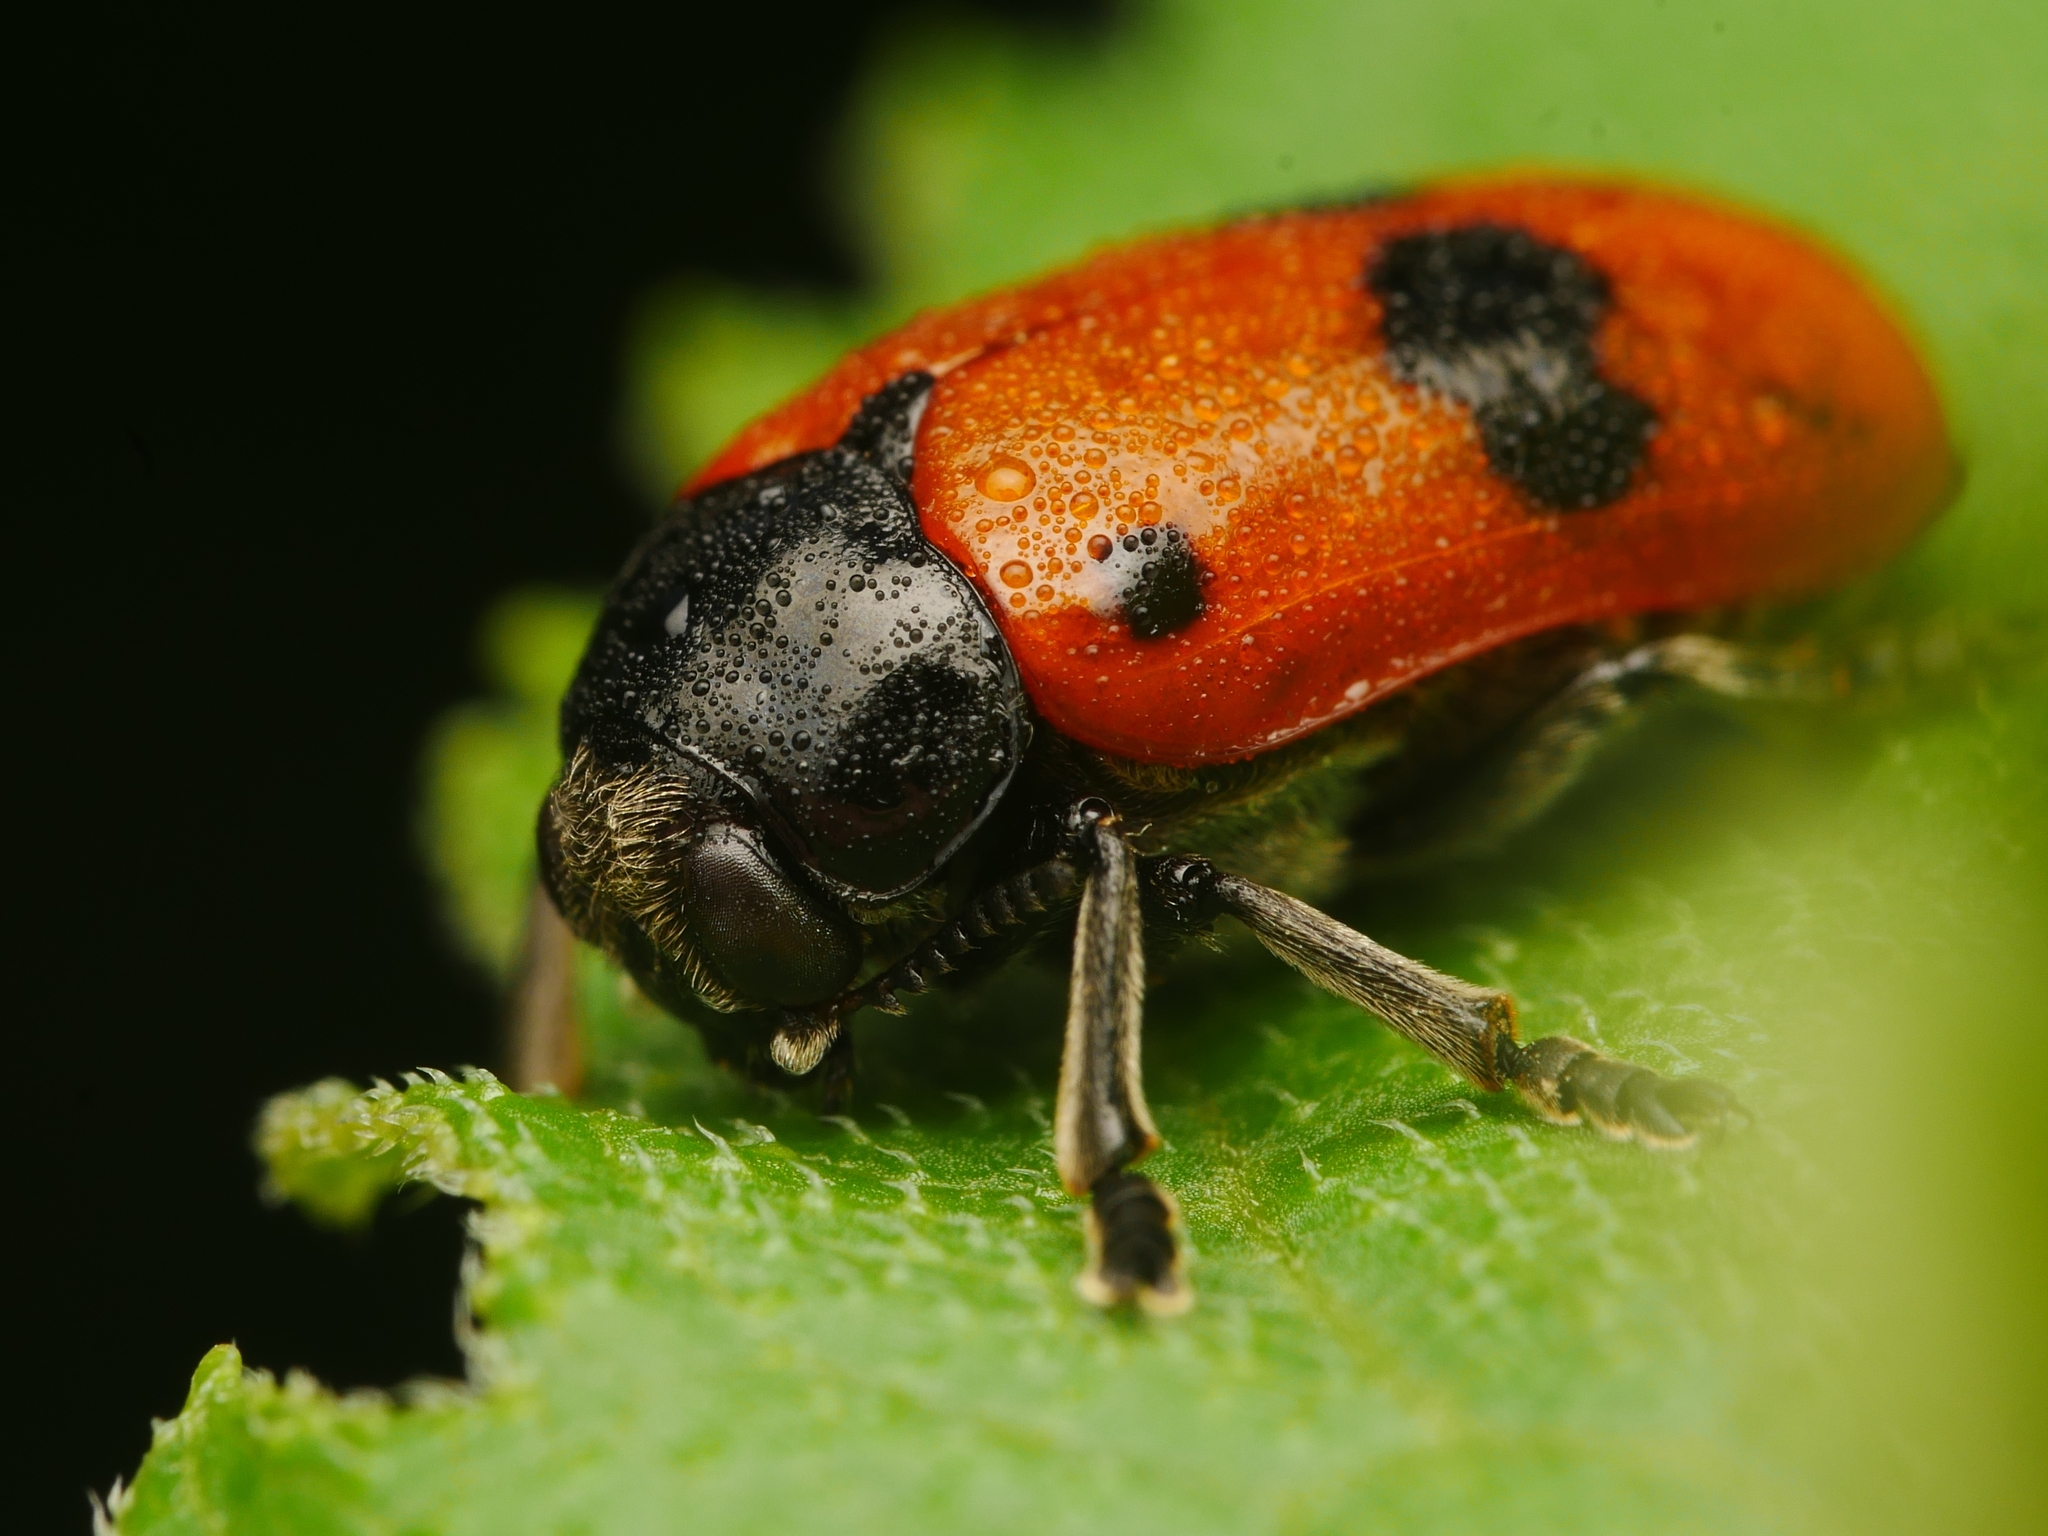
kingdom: Animalia
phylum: Arthropoda
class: Insecta
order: Coleoptera
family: Chrysomelidae
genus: Clytra
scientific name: Clytra laeviuscula
